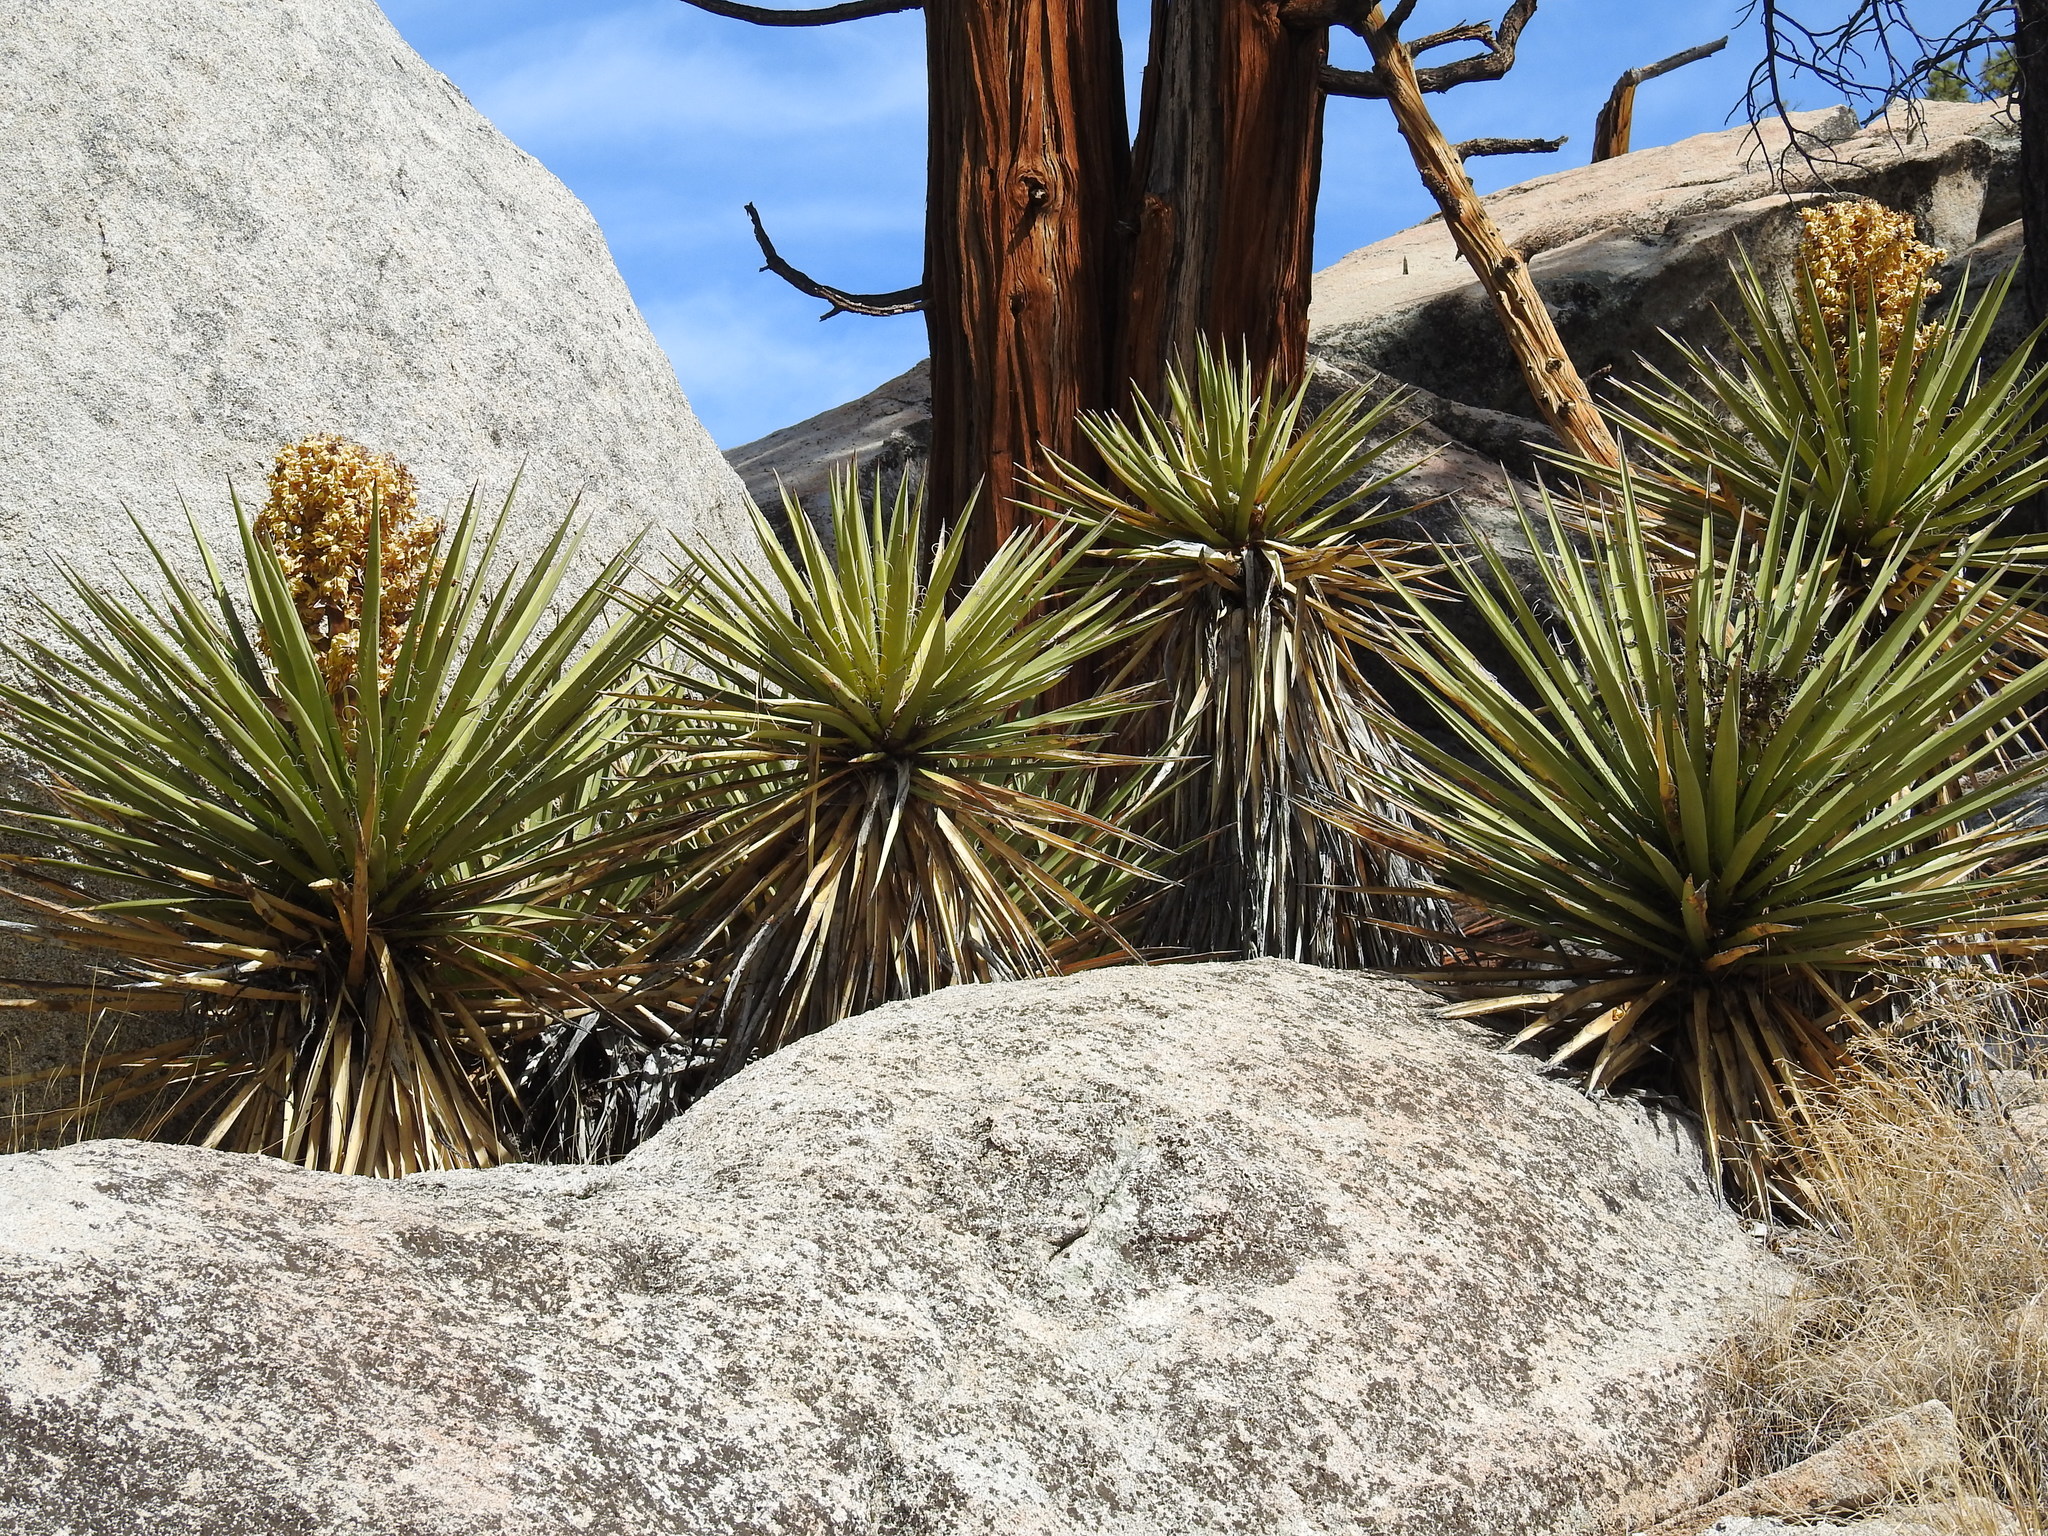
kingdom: Plantae
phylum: Tracheophyta
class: Liliopsida
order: Asparagales
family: Asparagaceae
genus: Yucca
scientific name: Yucca schidigera
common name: Mojave yucca
